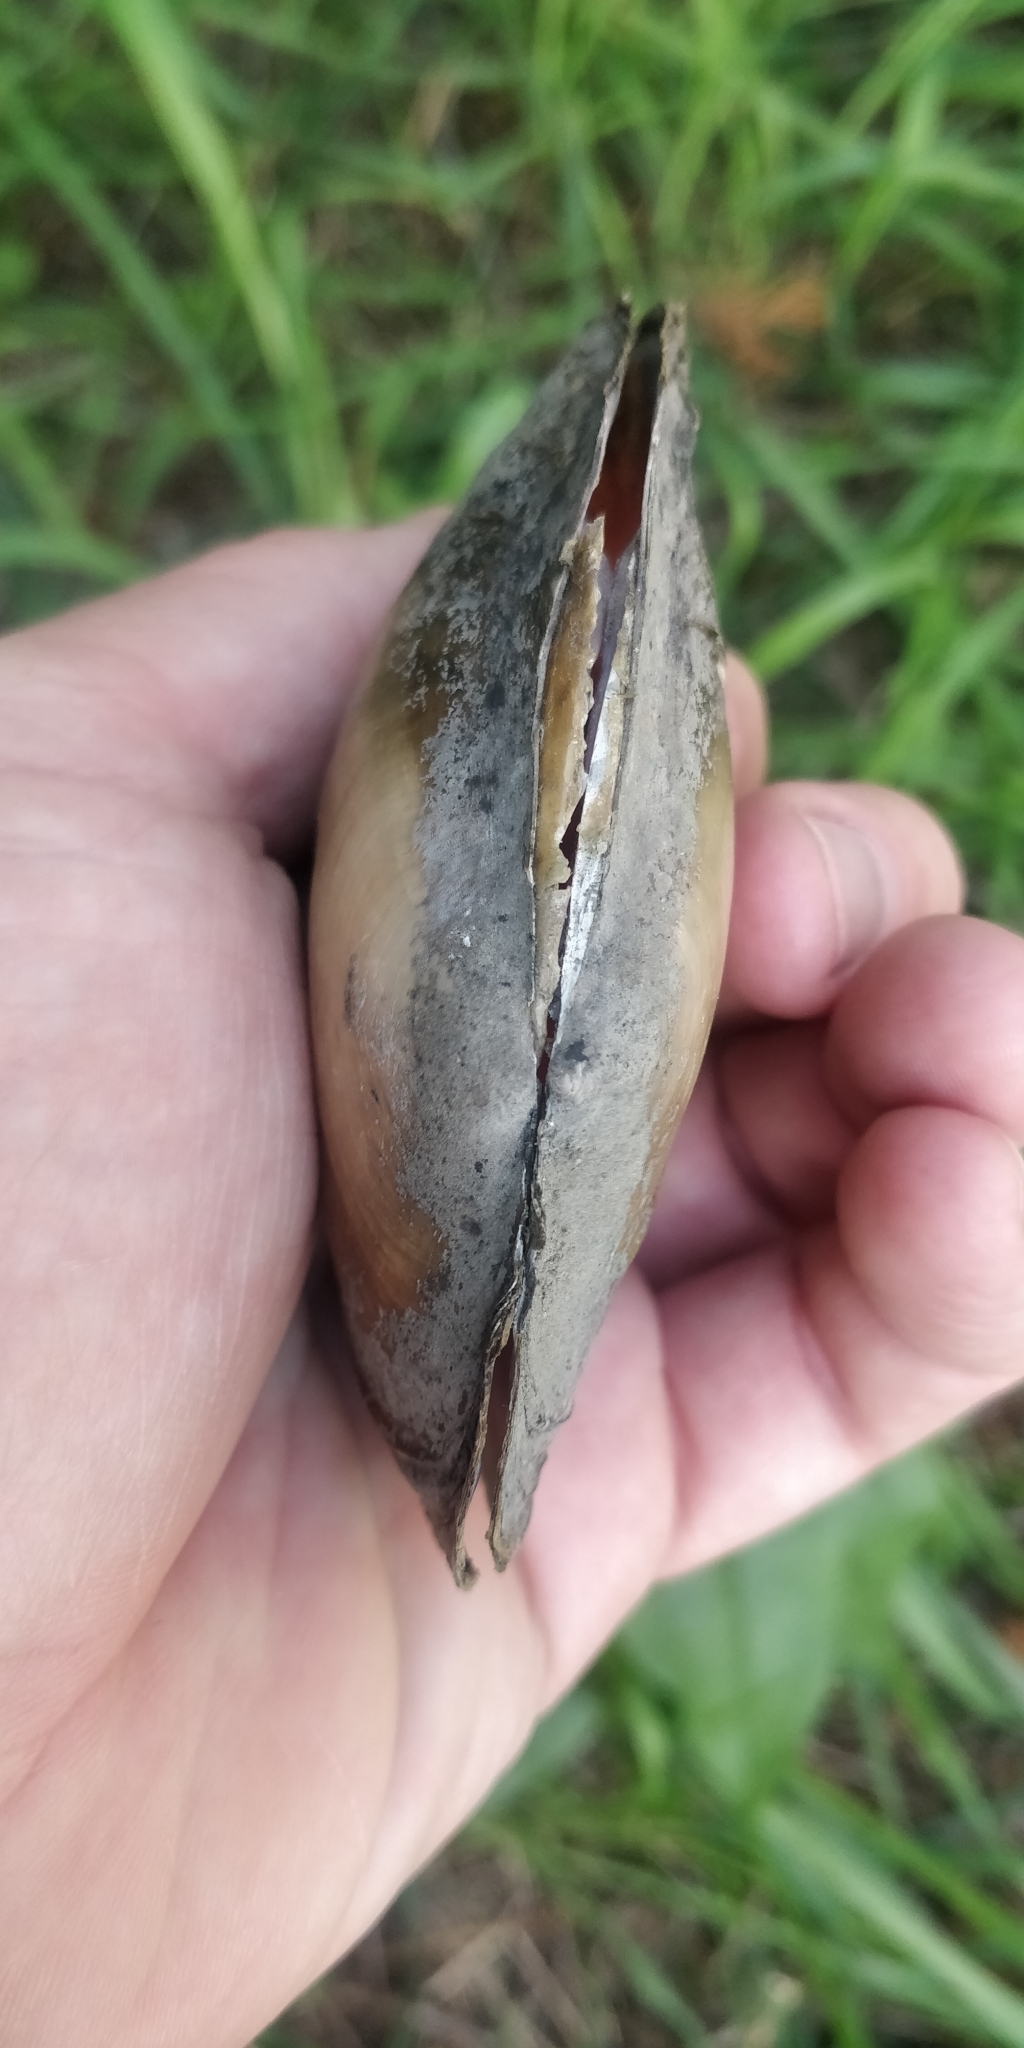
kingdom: Animalia
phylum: Mollusca
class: Bivalvia
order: Unionida
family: Unionidae
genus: Potamilus
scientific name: Potamilus ohiensis
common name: Pink papershell
